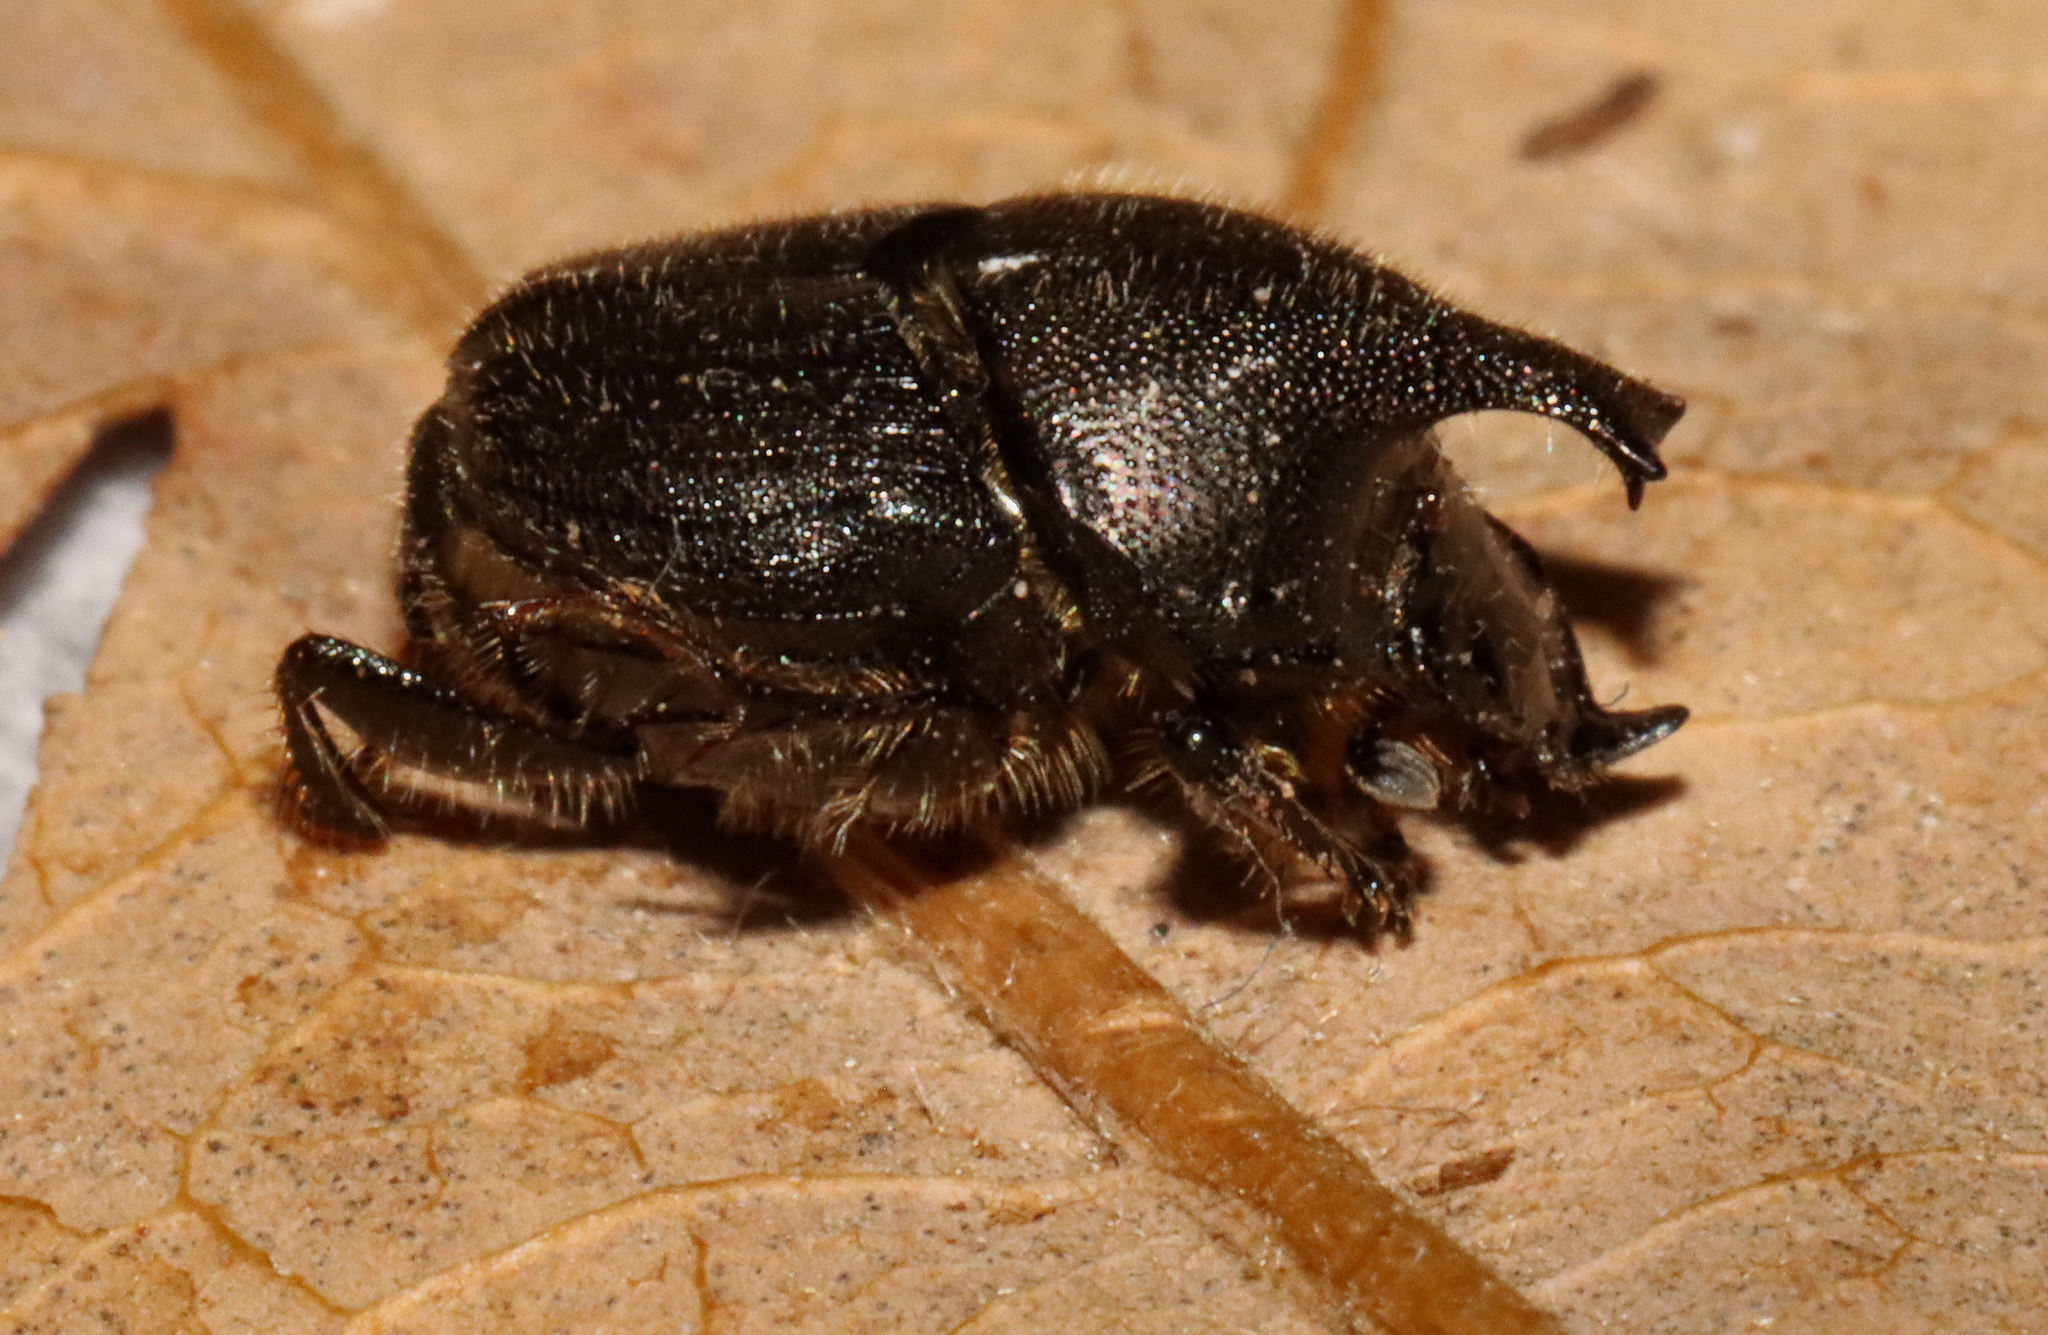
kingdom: Animalia
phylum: Arthropoda
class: Insecta
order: Coleoptera
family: Scarabaeidae
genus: Onthophagus
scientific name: Onthophagus hecate
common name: Scooped scarab
